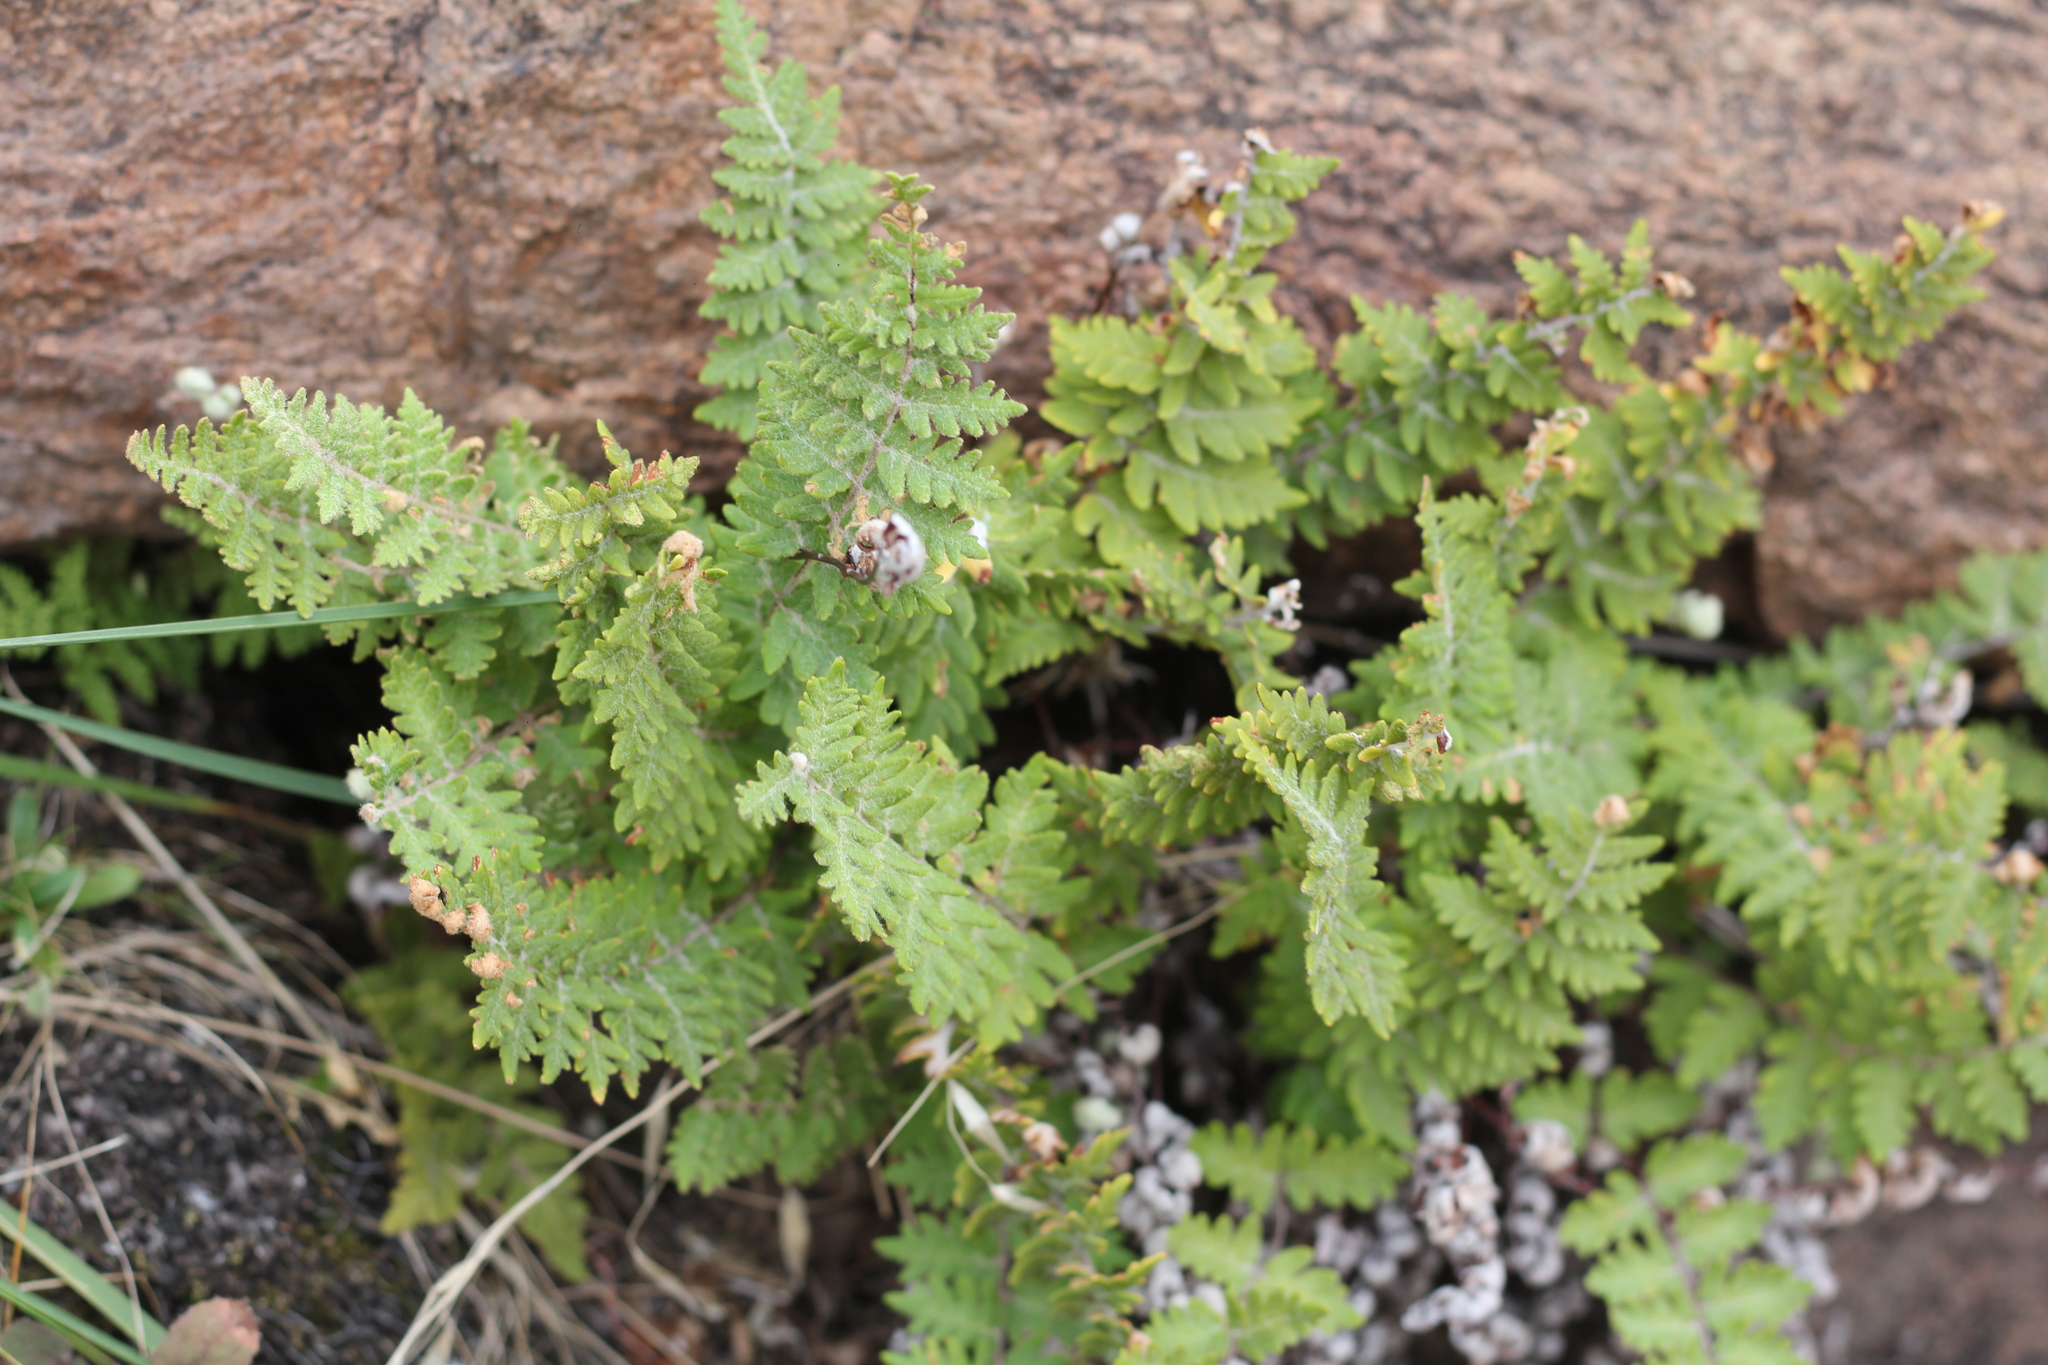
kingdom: Plantae
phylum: Tracheophyta
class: Polypodiopsida
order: Polypodiales
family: Pteridaceae
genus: Cheilanthes
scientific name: Cheilanthes buchtienii
